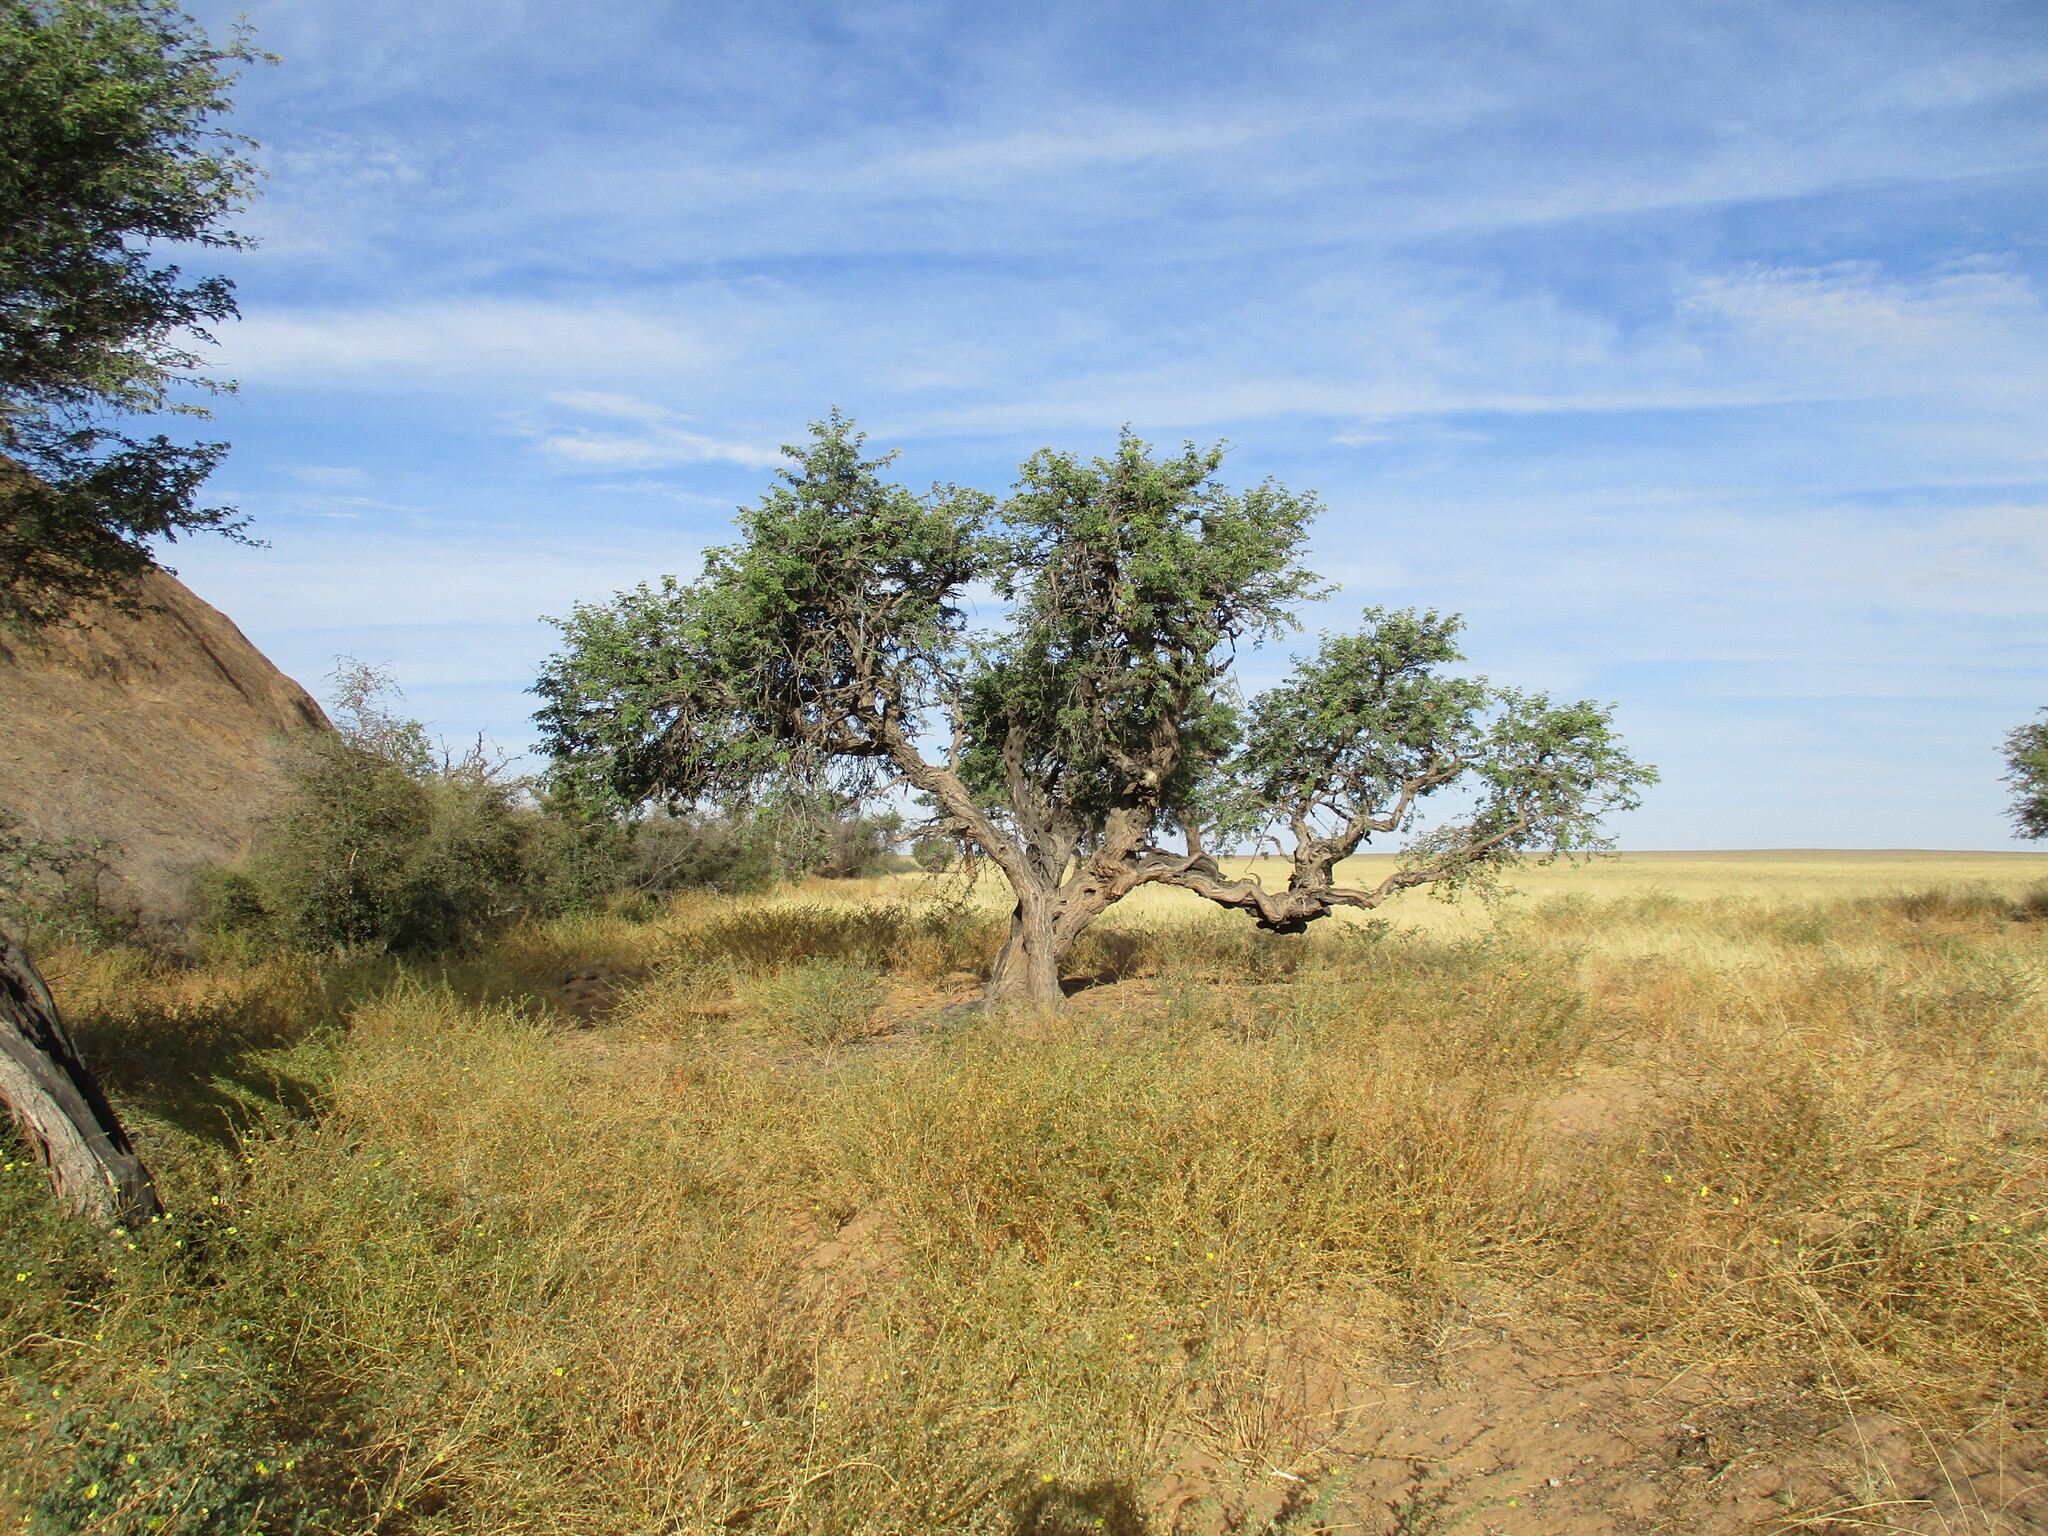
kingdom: Plantae
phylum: Tracheophyta
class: Magnoliopsida
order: Fabales
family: Fabaceae
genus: Vachellia
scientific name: Vachellia erioloba
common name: Camel thorn
